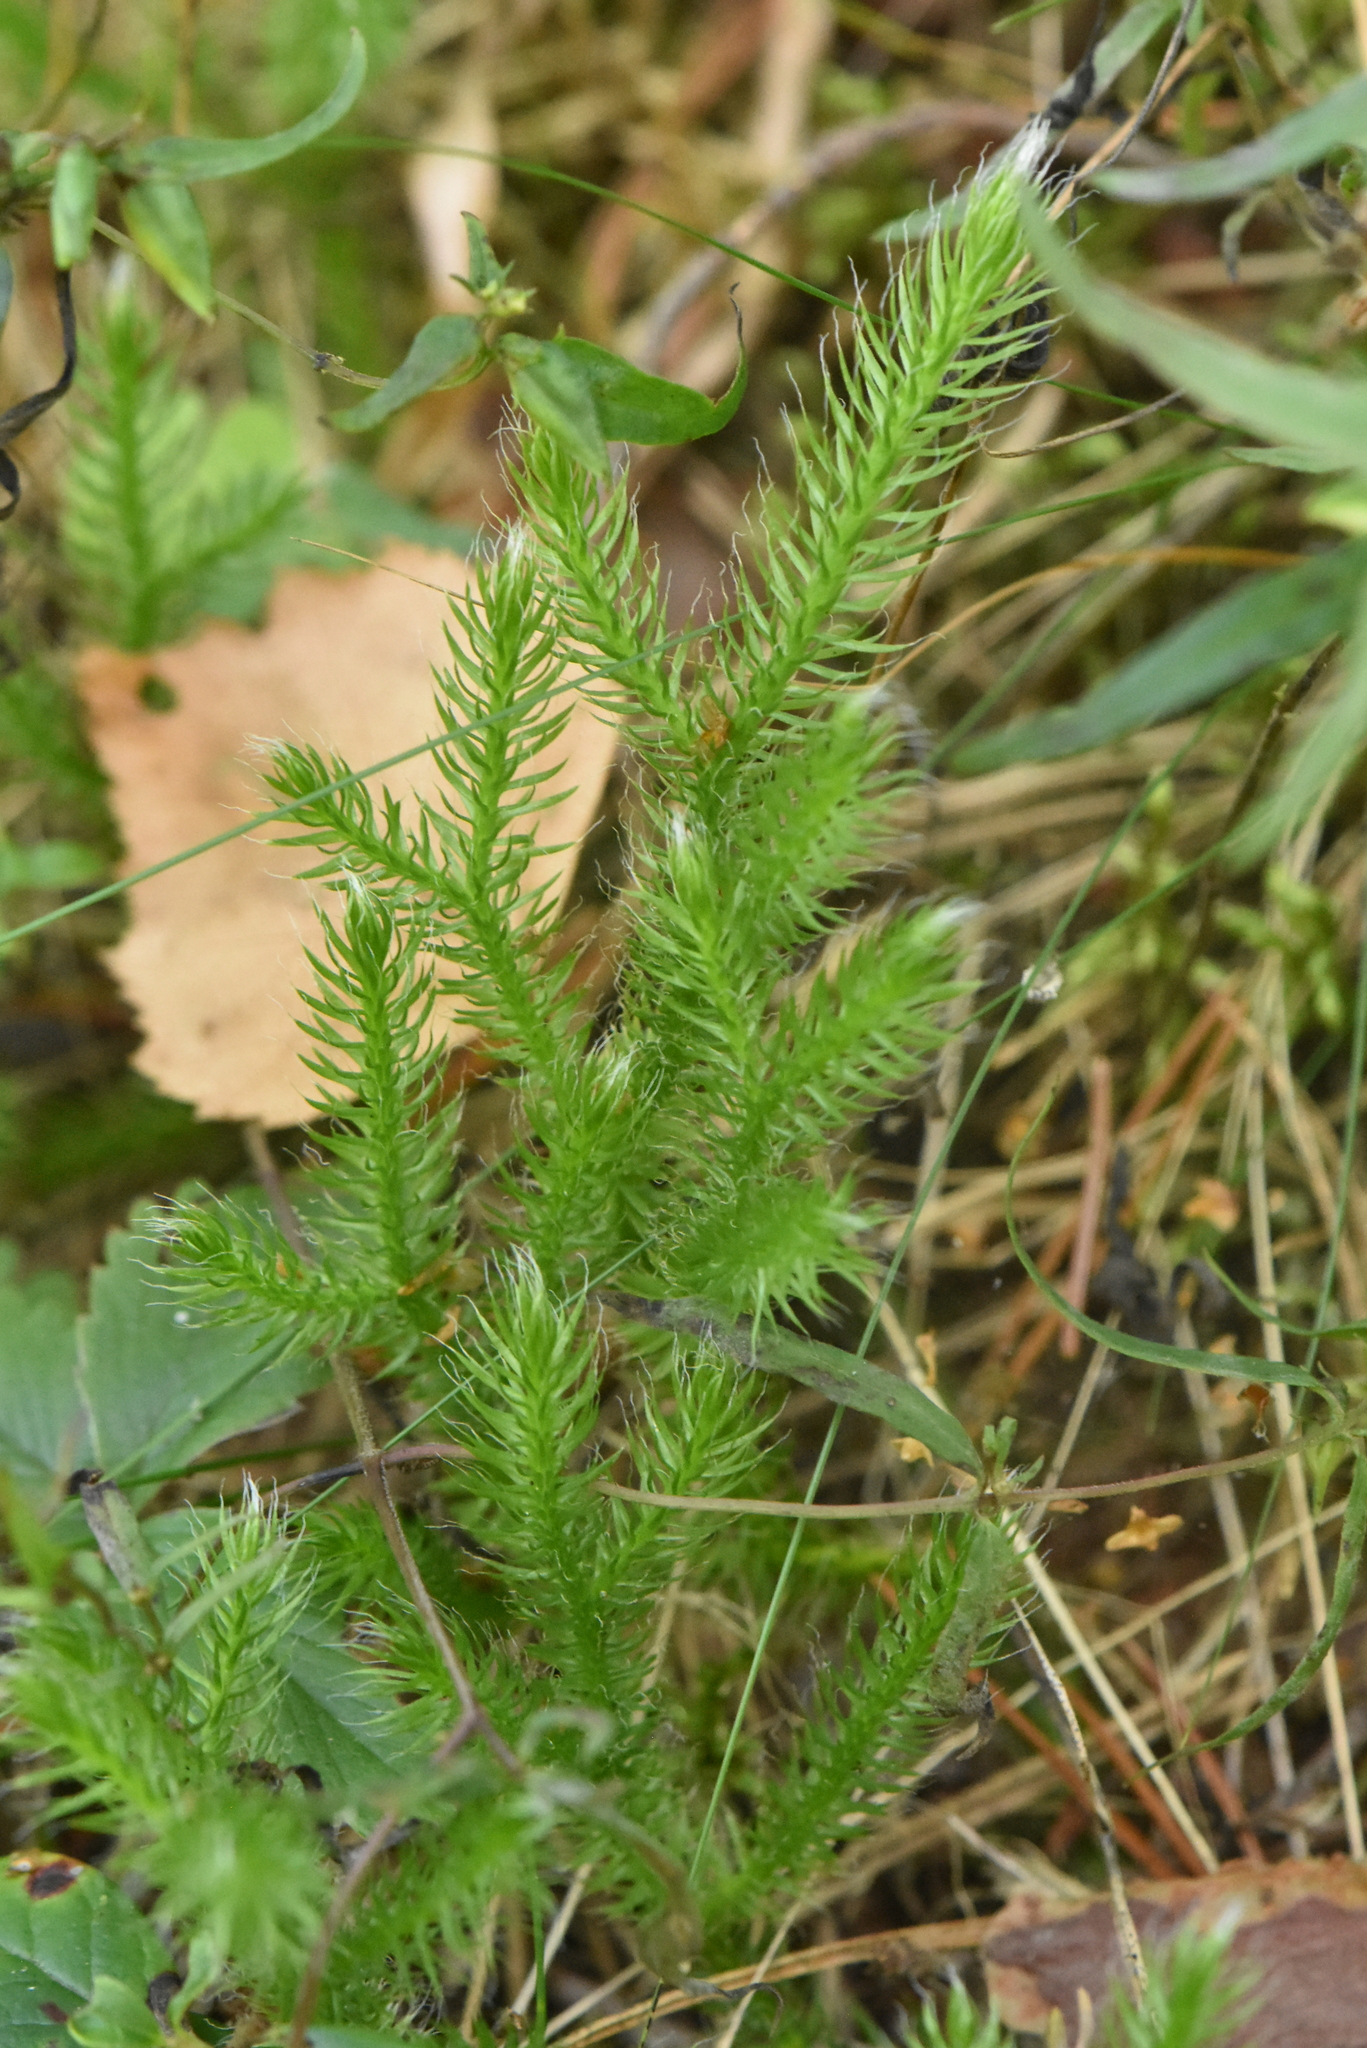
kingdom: Plantae
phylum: Tracheophyta
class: Lycopodiopsida
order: Lycopodiales
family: Lycopodiaceae
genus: Lycopodium
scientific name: Lycopodium clavatum
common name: Stag's-horn clubmoss
